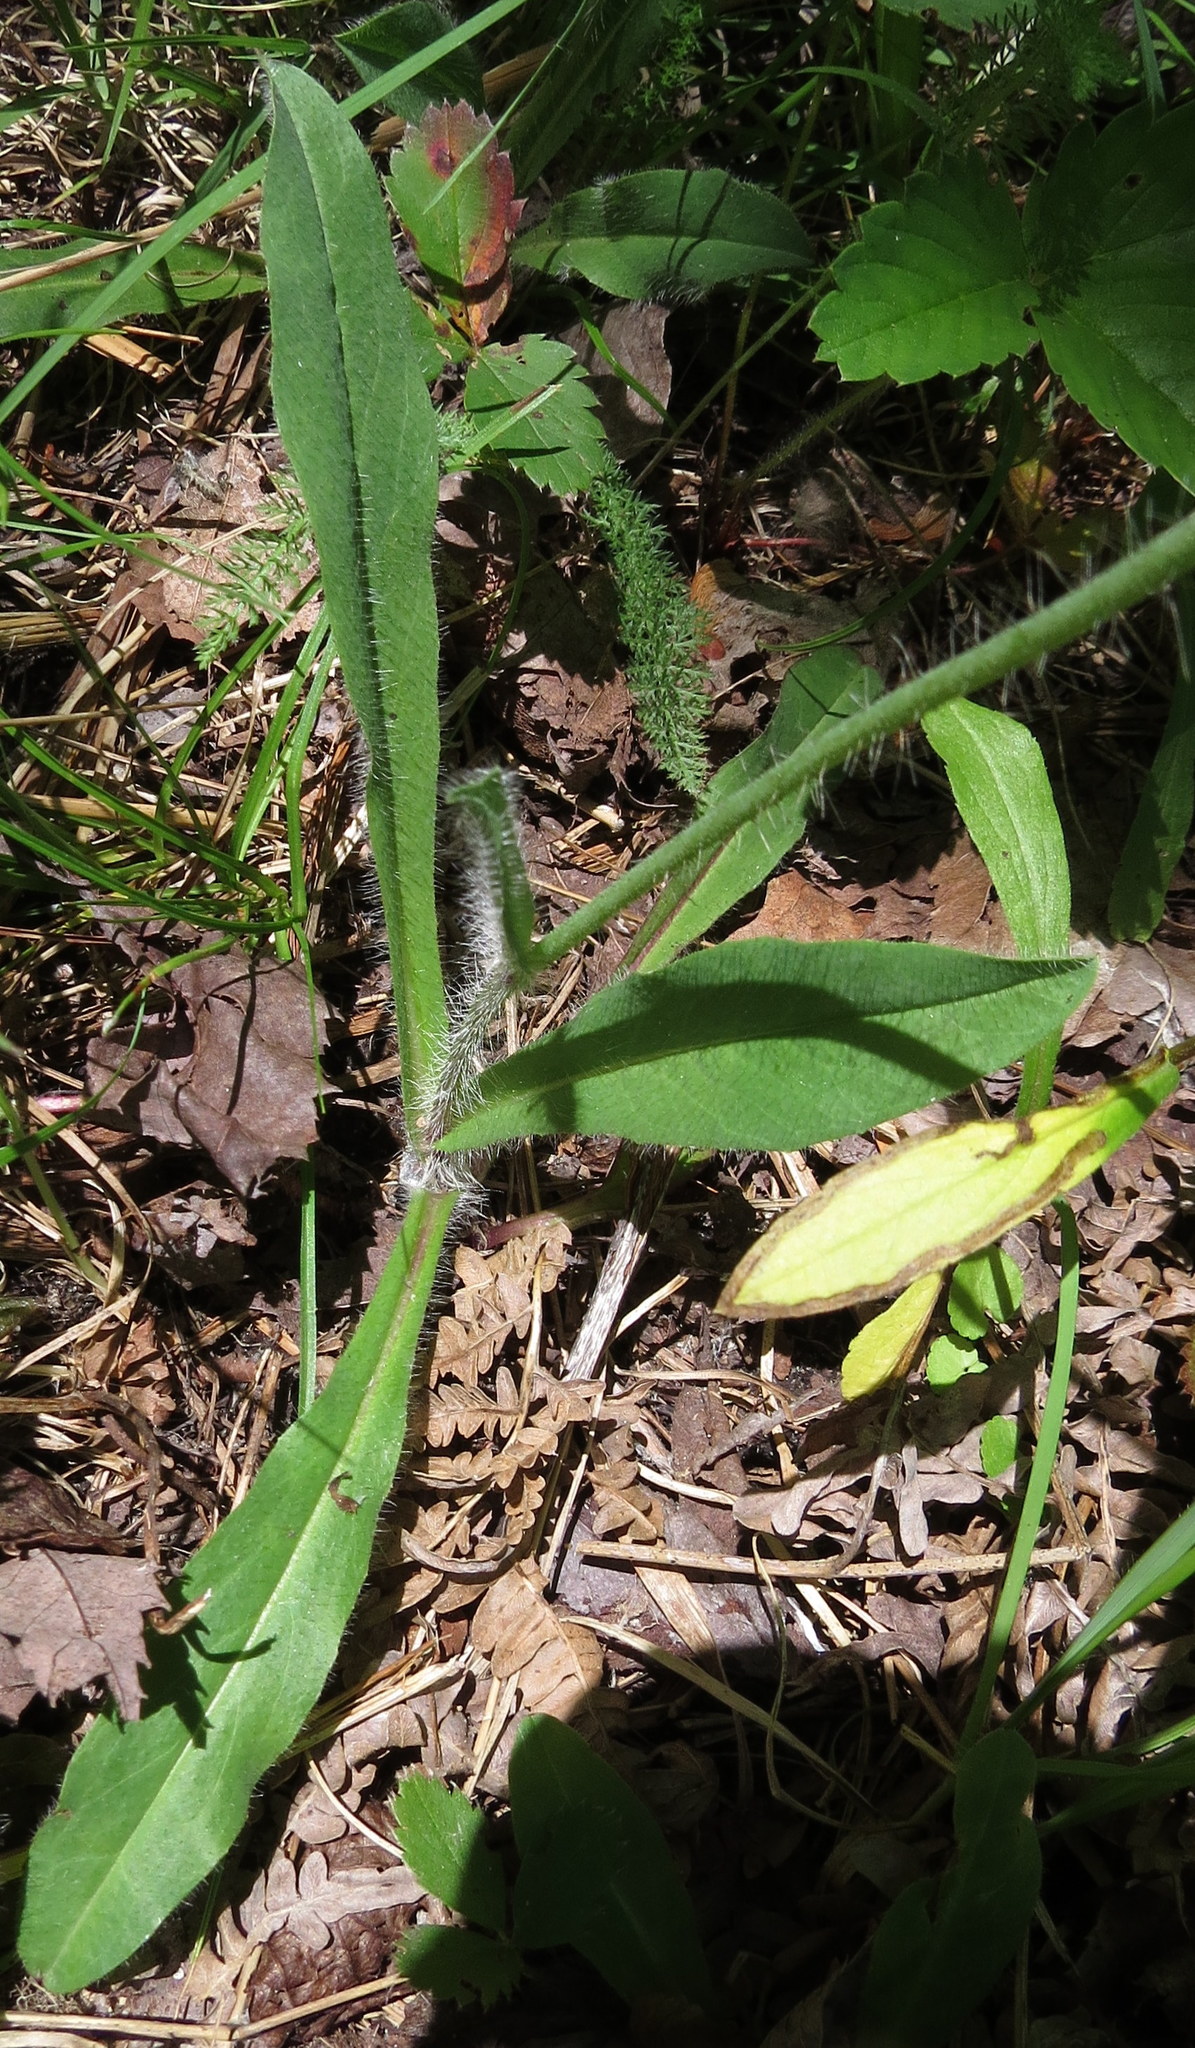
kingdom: Plantae
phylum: Tracheophyta
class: Magnoliopsida
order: Asterales
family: Asteraceae
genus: Pilosella
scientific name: Pilosella aurantiaca
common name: Fox-and-cubs
